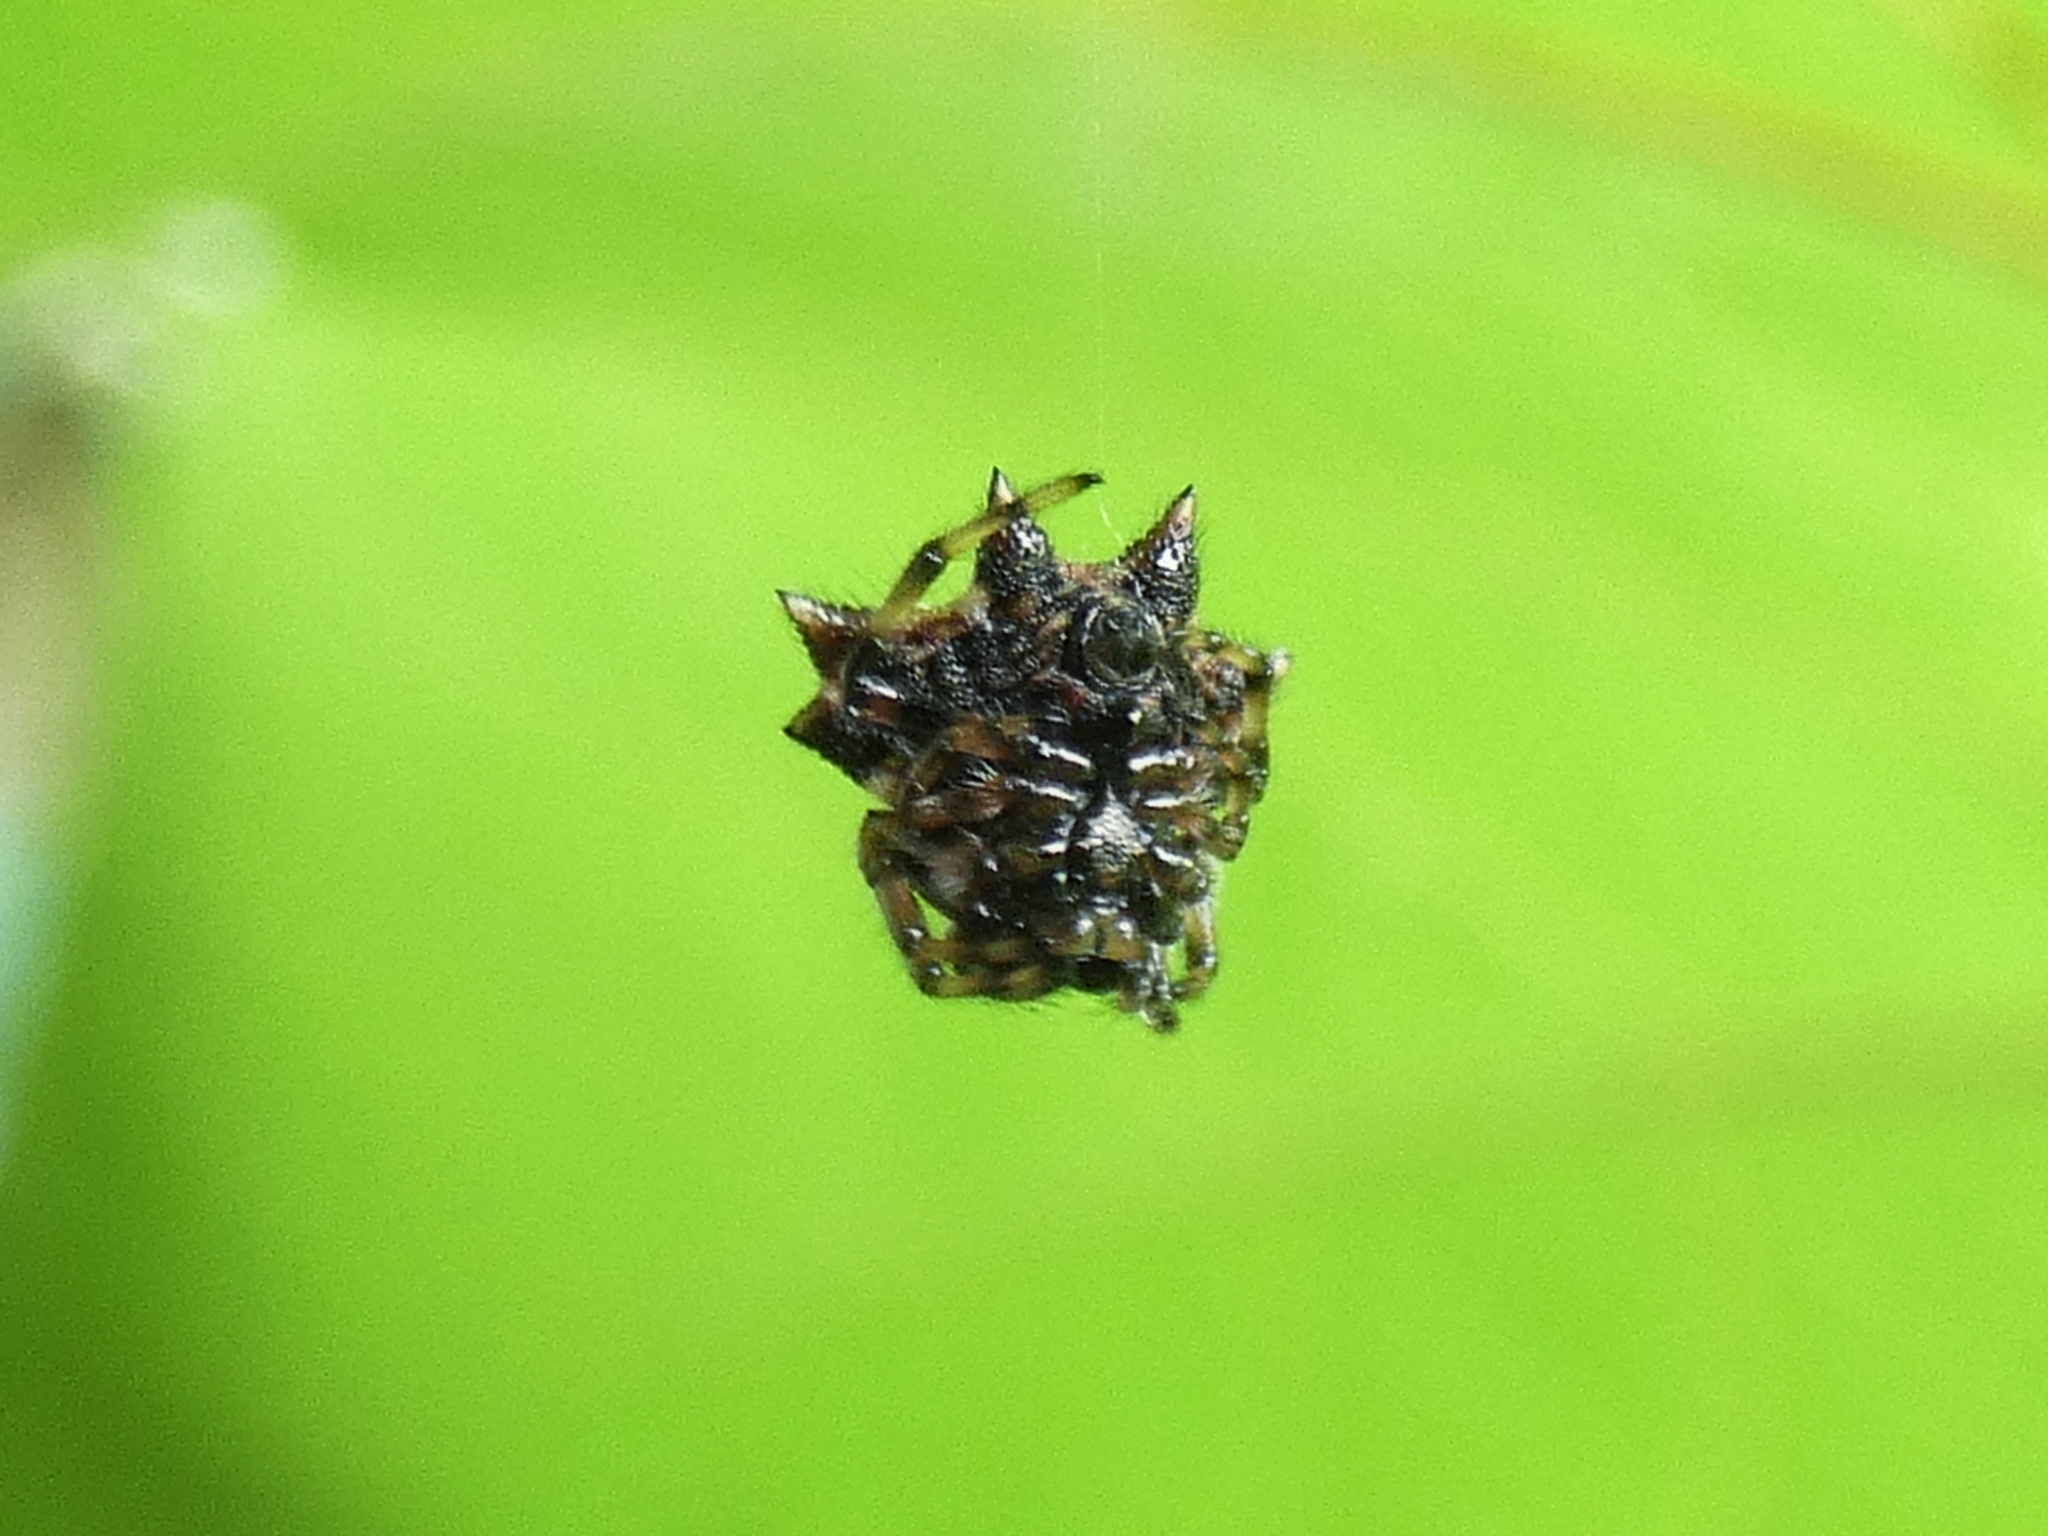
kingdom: Animalia
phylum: Arthropoda
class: Arachnida
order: Araneae
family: Araneidae
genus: Gasteracantha
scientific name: Gasteracantha kuhli
